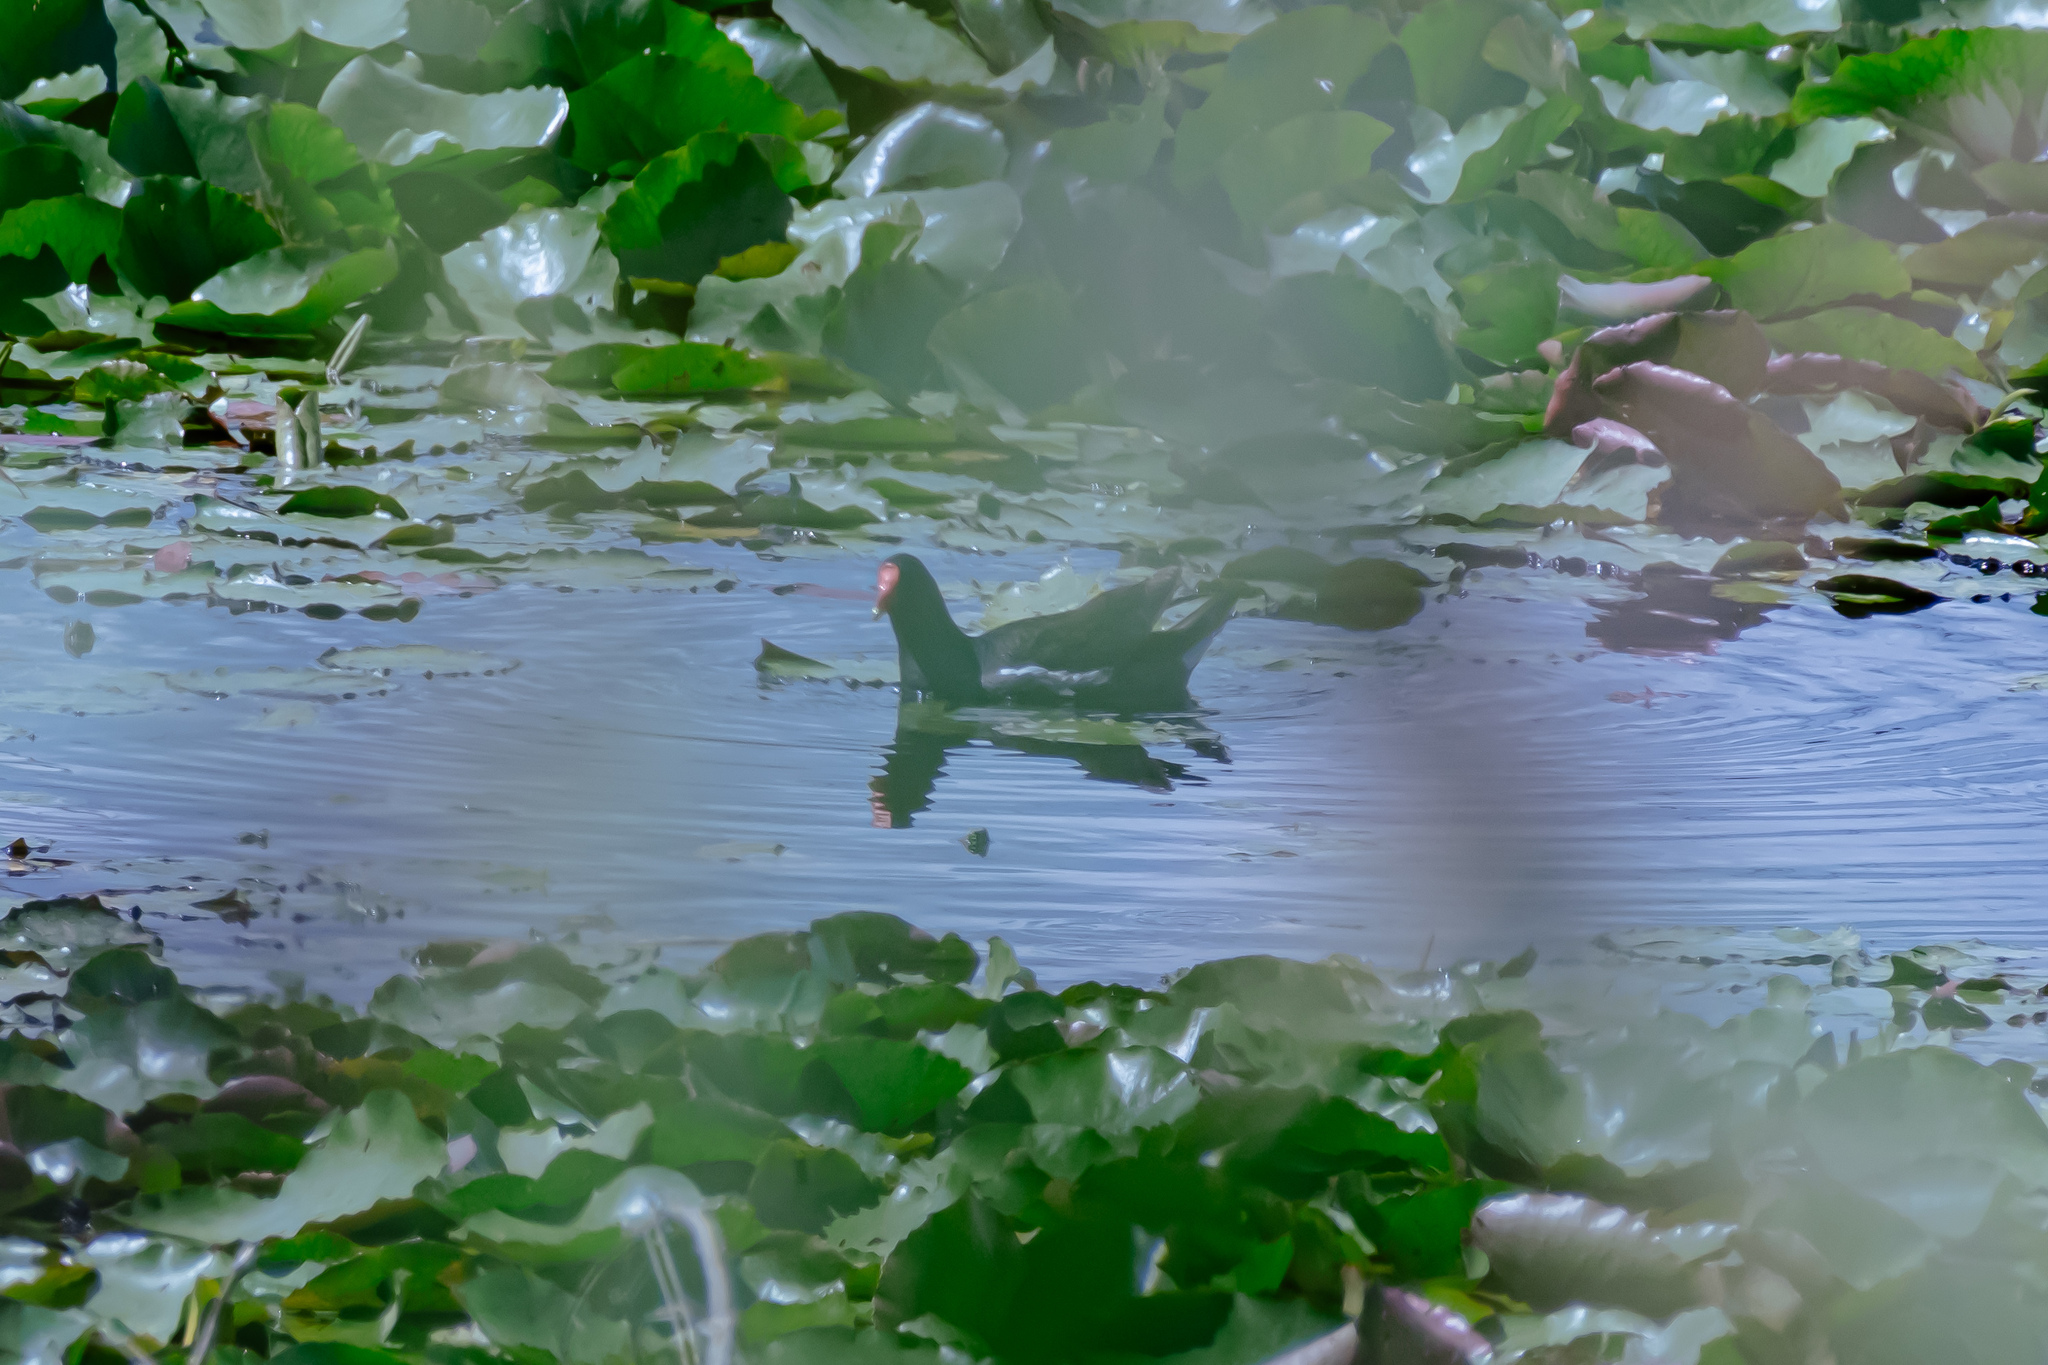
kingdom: Animalia
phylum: Chordata
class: Aves
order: Gruiformes
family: Rallidae
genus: Gallinula
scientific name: Gallinula chloropus
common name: Common moorhen
